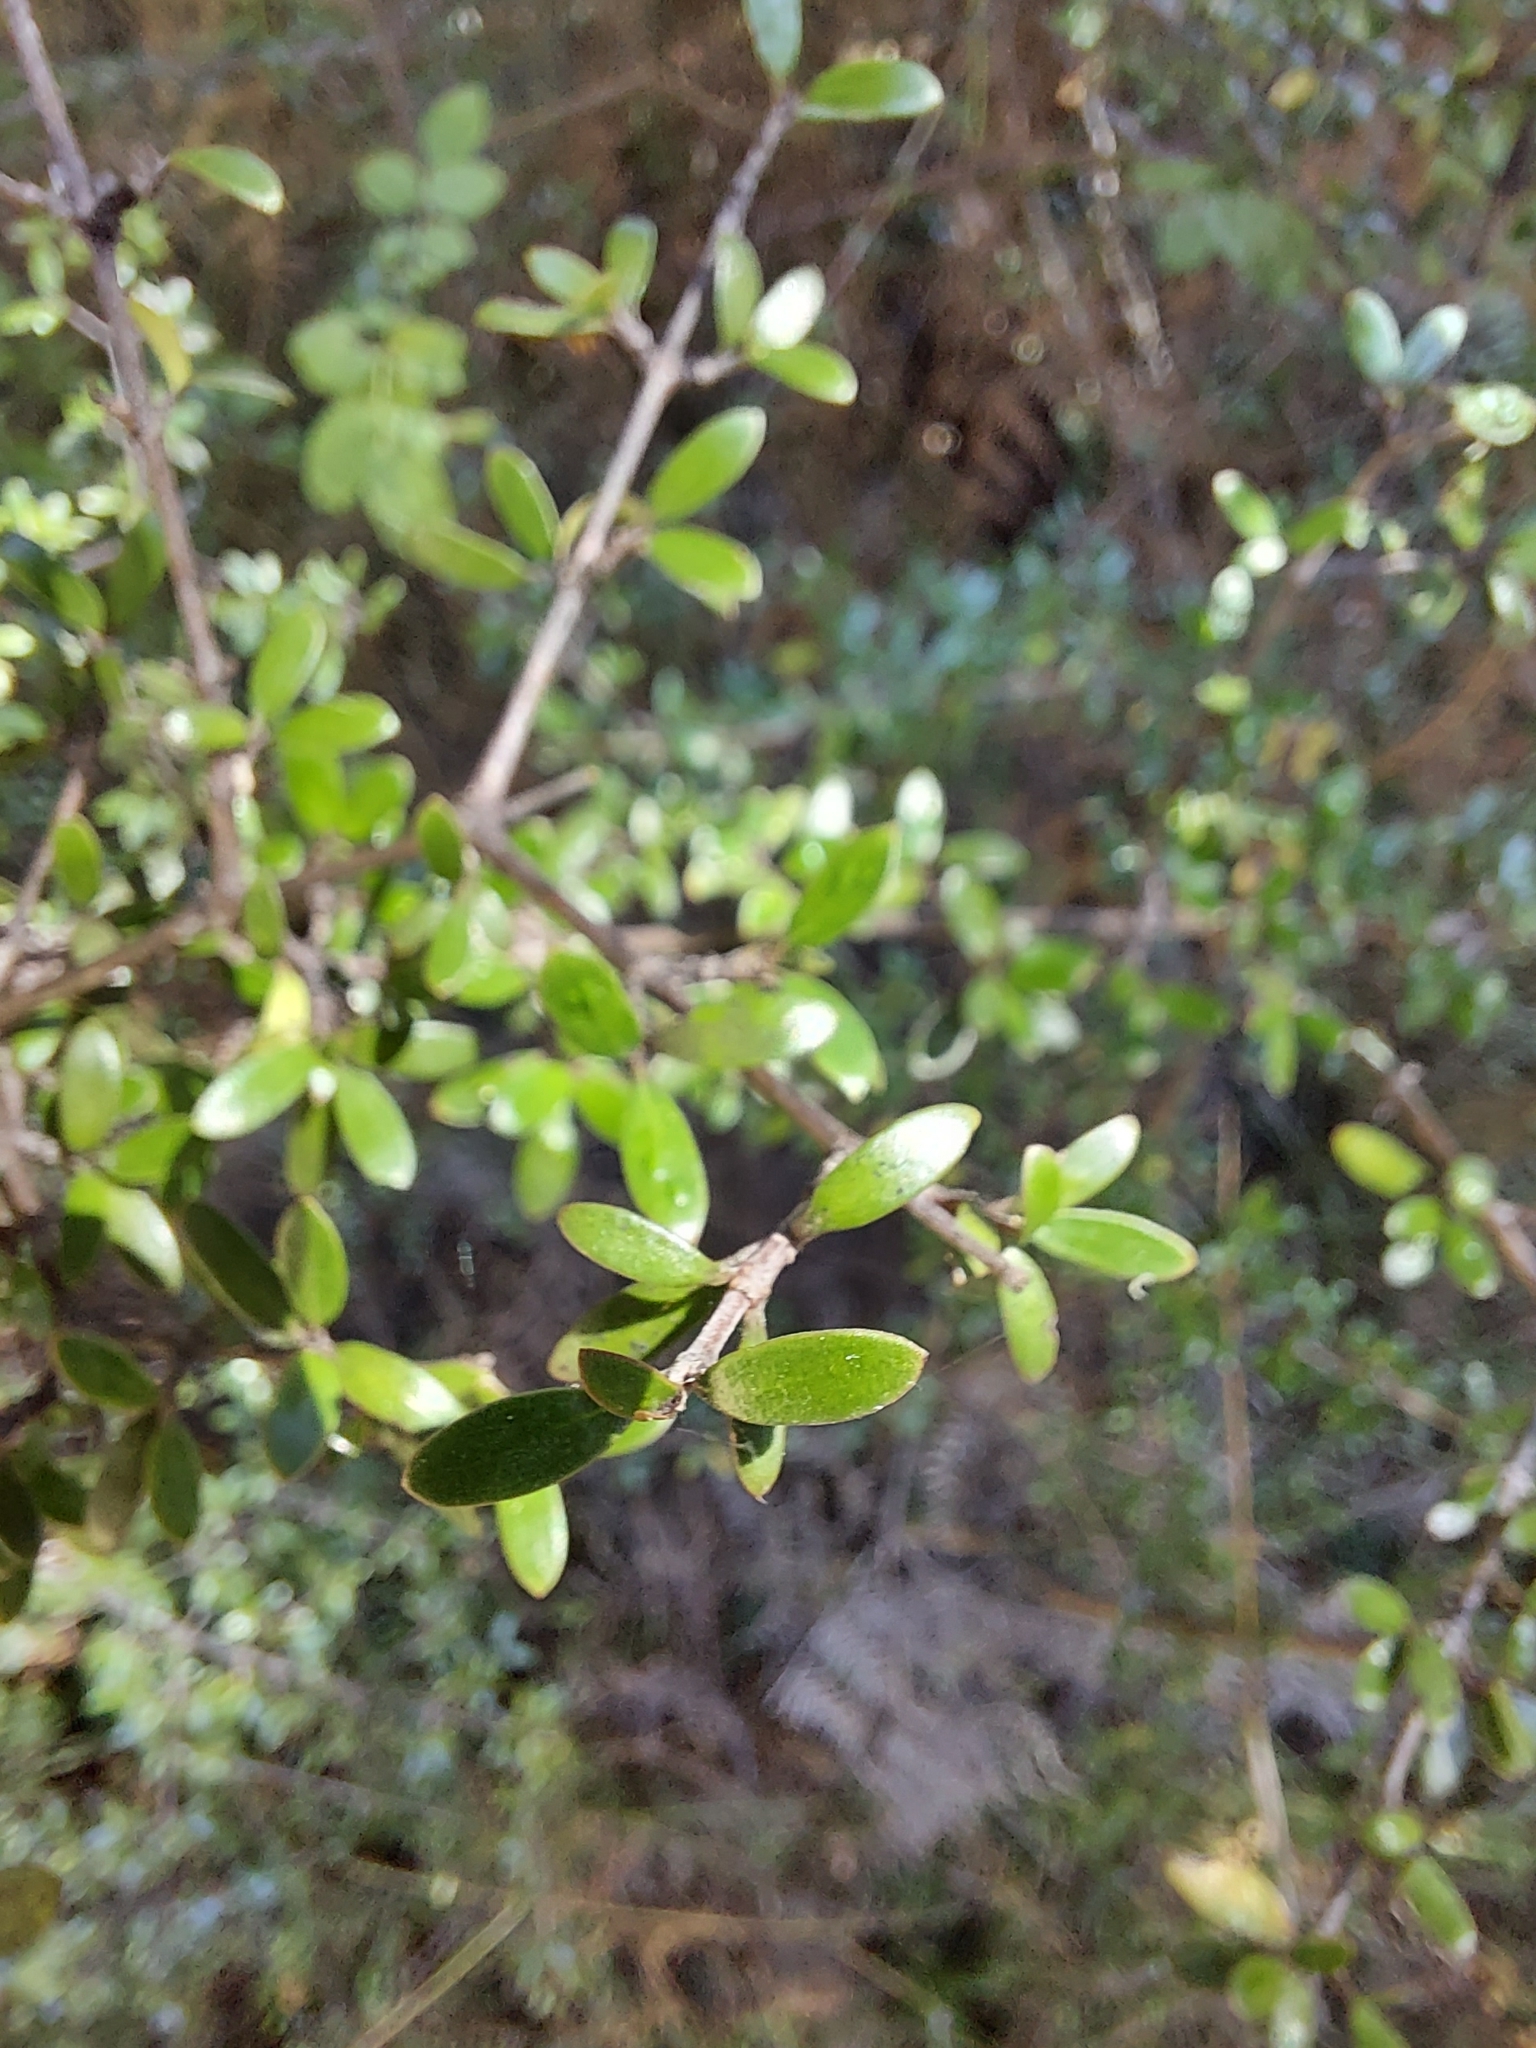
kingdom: Plantae
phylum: Tracheophyta
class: Magnoliopsida
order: Gentianales
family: Rubiaceae
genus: Coprosma
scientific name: Coprosma propinqua
